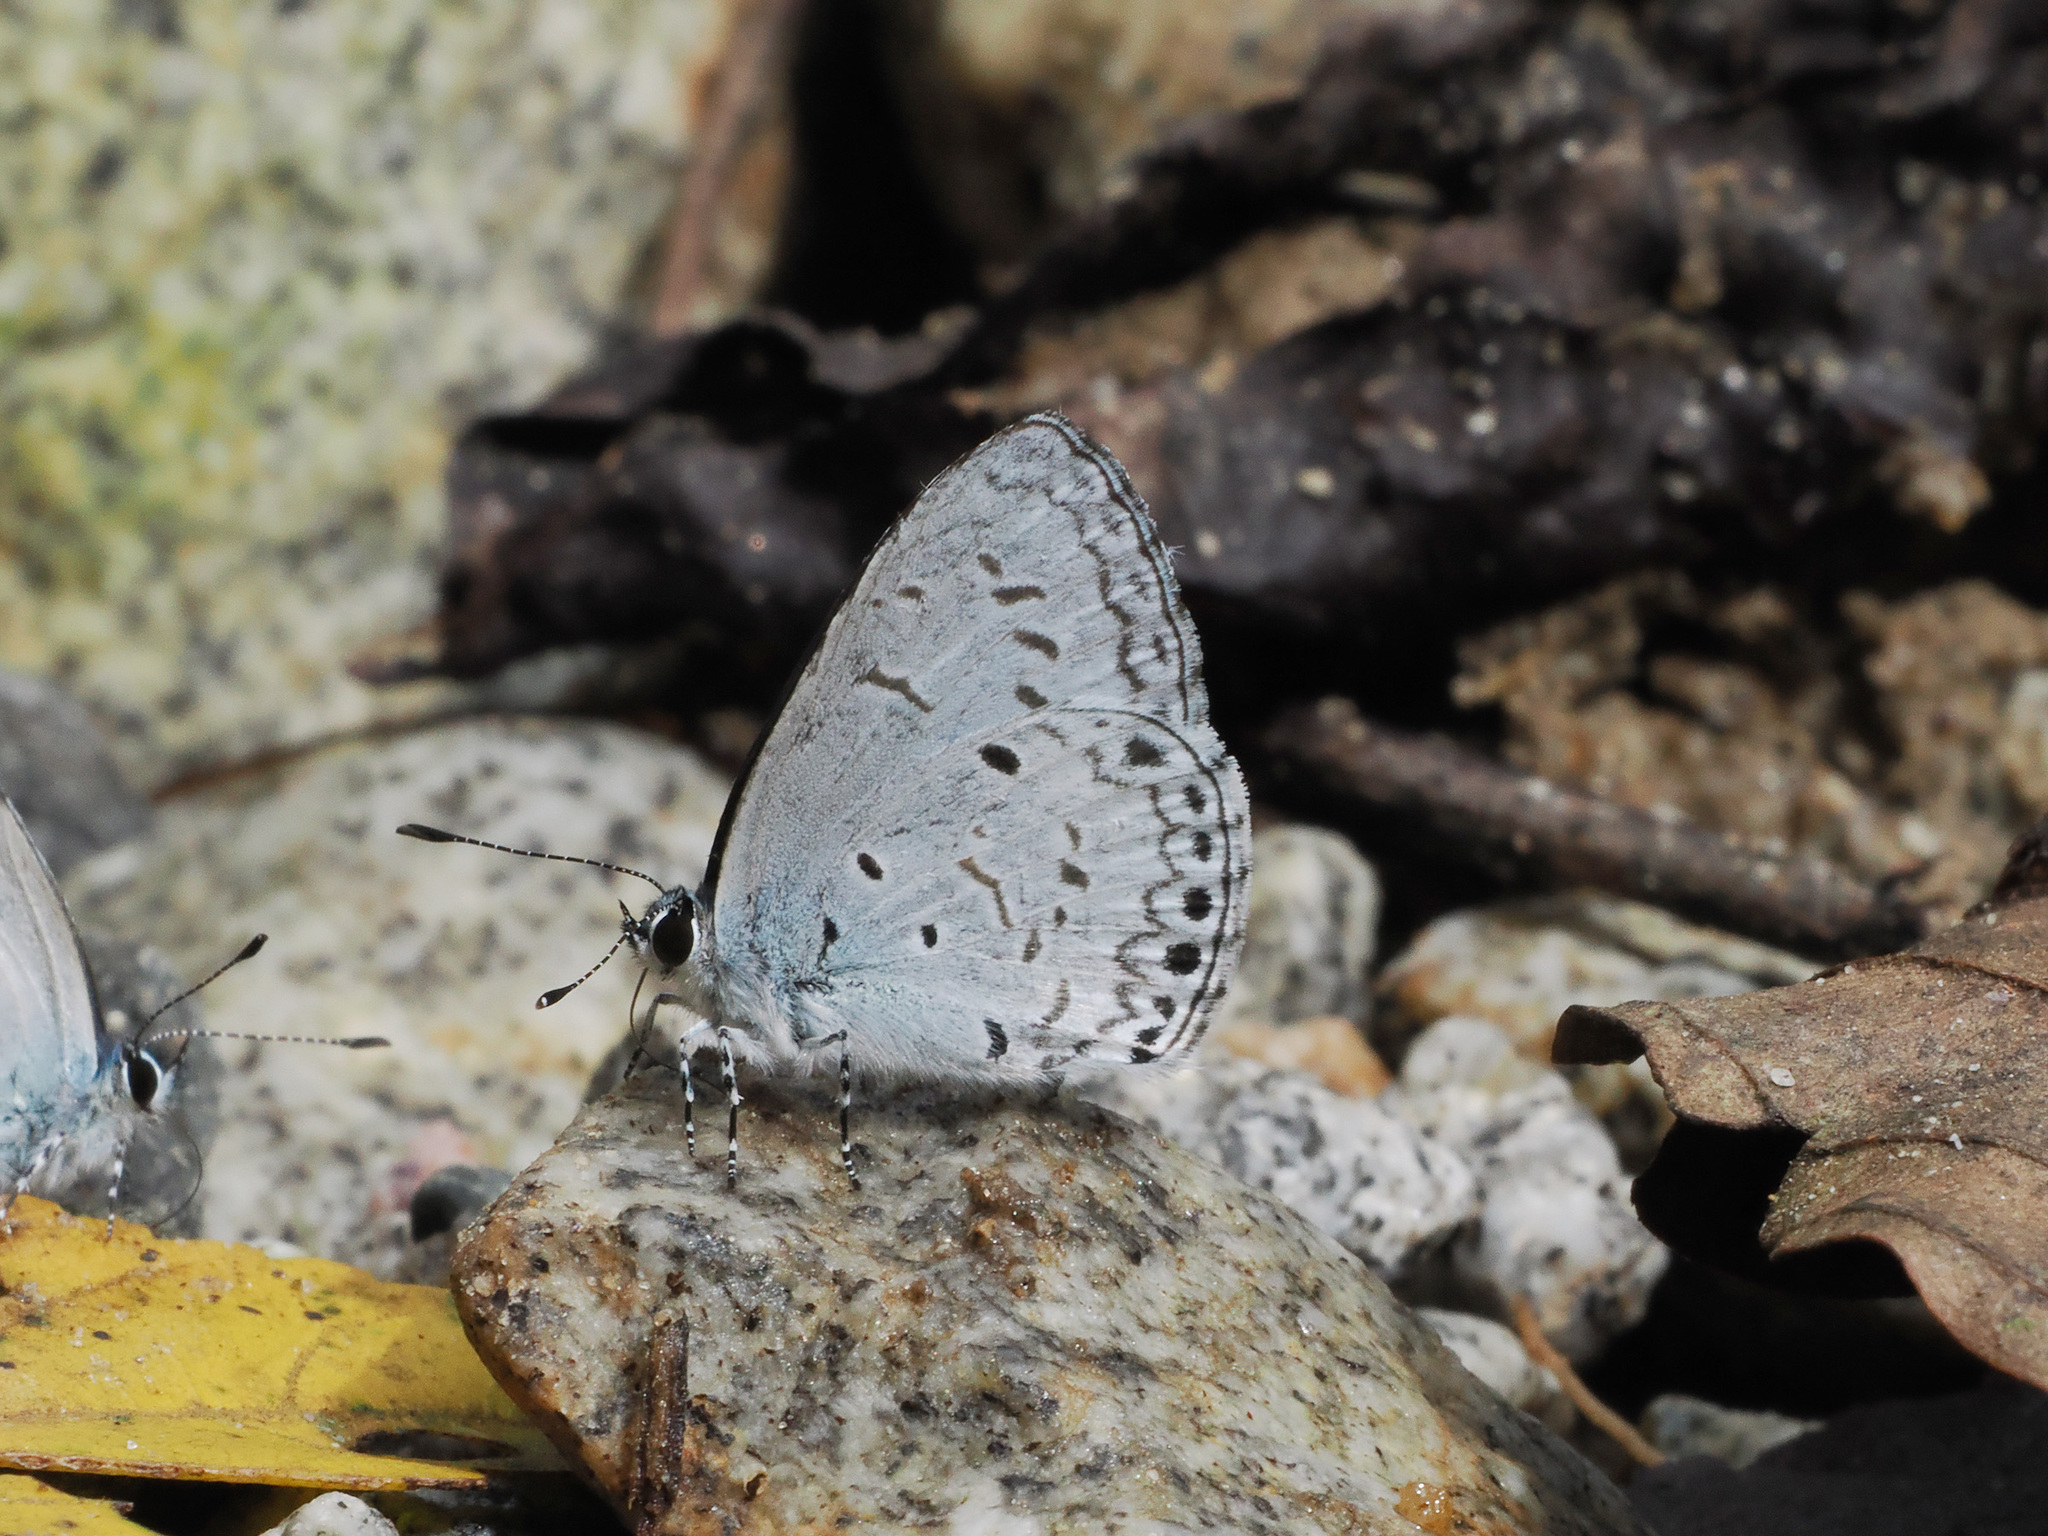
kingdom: Animalia
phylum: Arthropoda
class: Insecta
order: Lepidoptera
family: Lycaenidae
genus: Acytolepis
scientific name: Acytolepis
